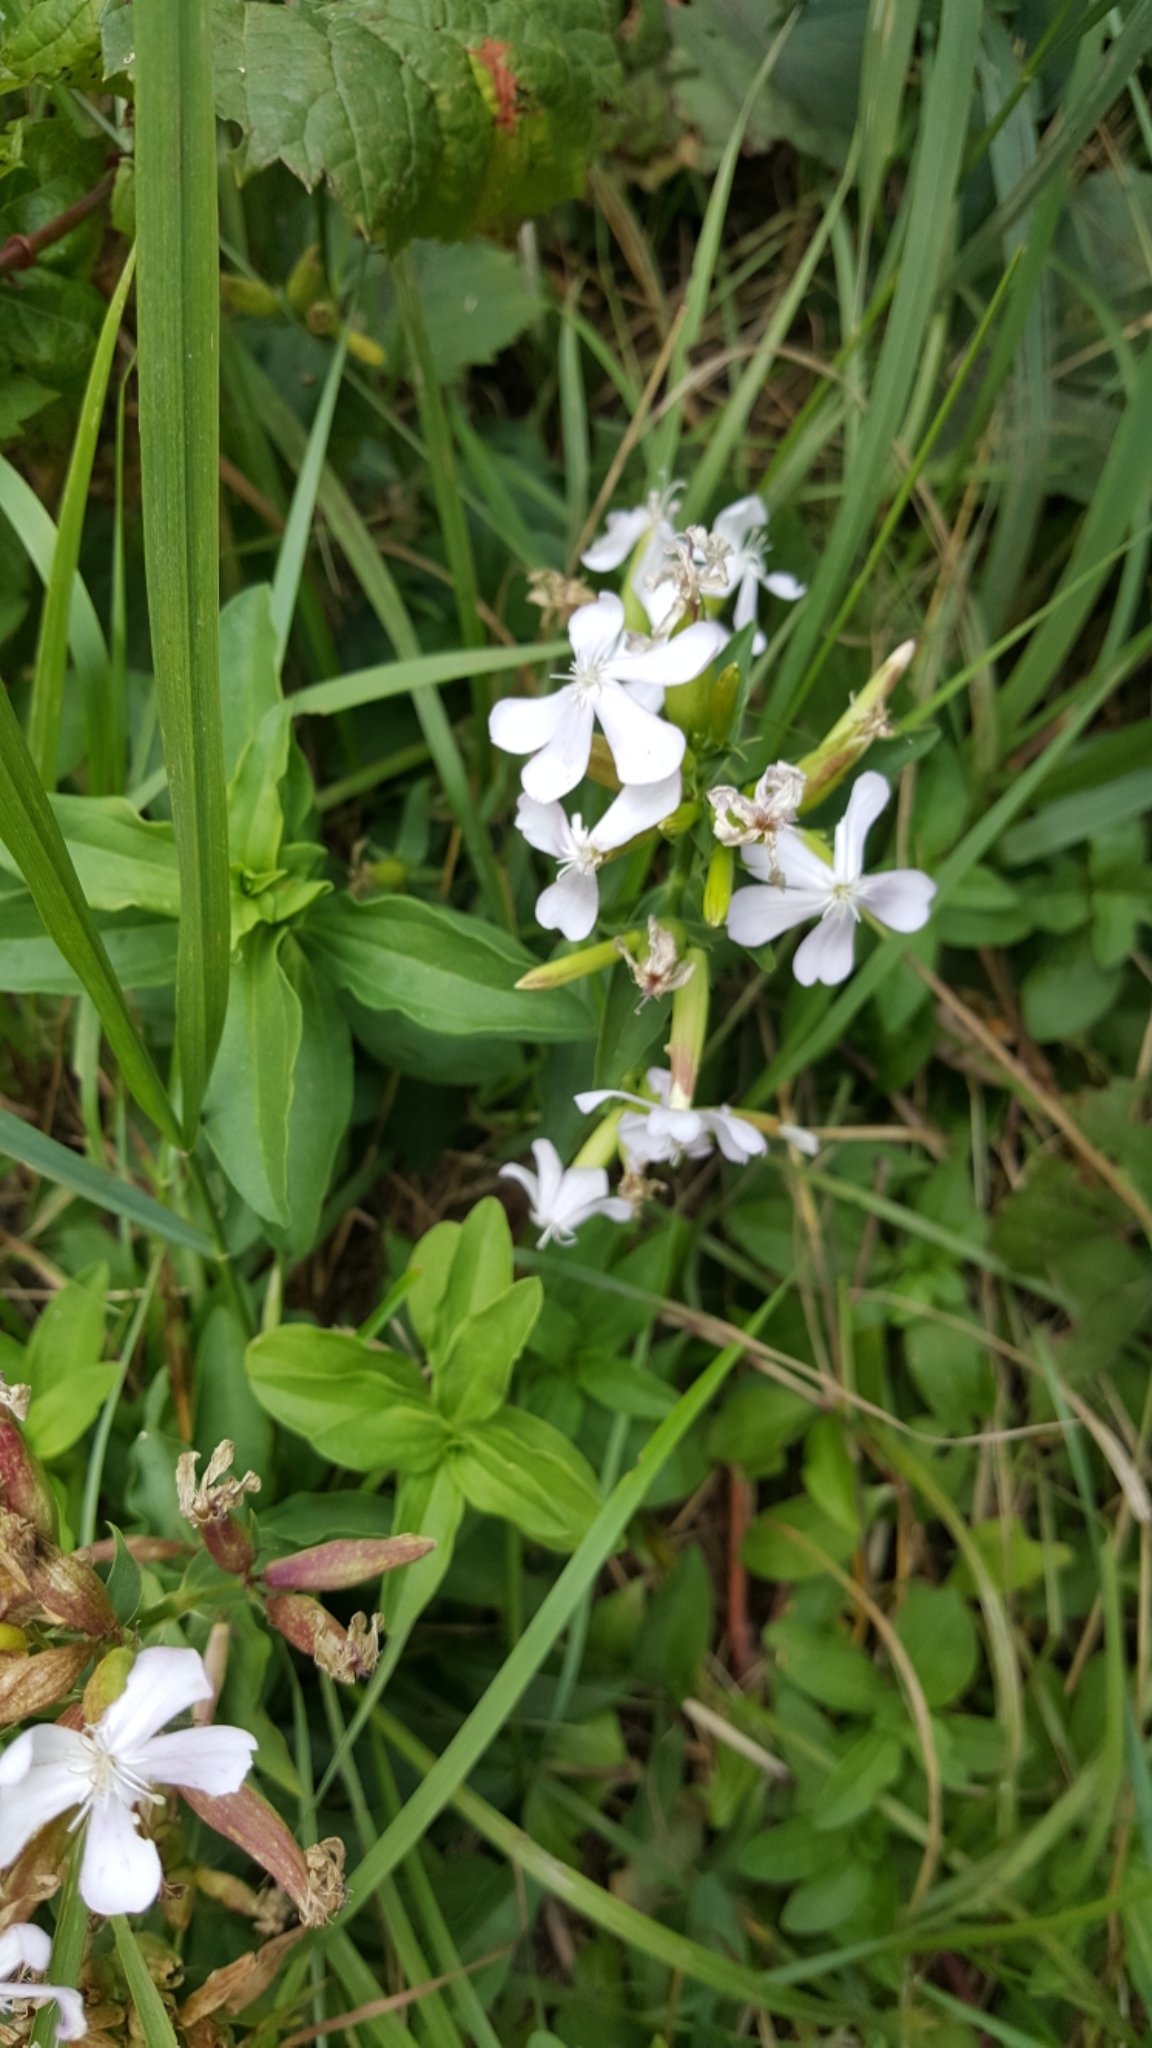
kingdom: Plantae
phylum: Tracheophyta
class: Magnoliopsida
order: Caryophyllales
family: Caryophyllaceae
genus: Saponaria
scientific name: Saponaria officinalis
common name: Soapwort
